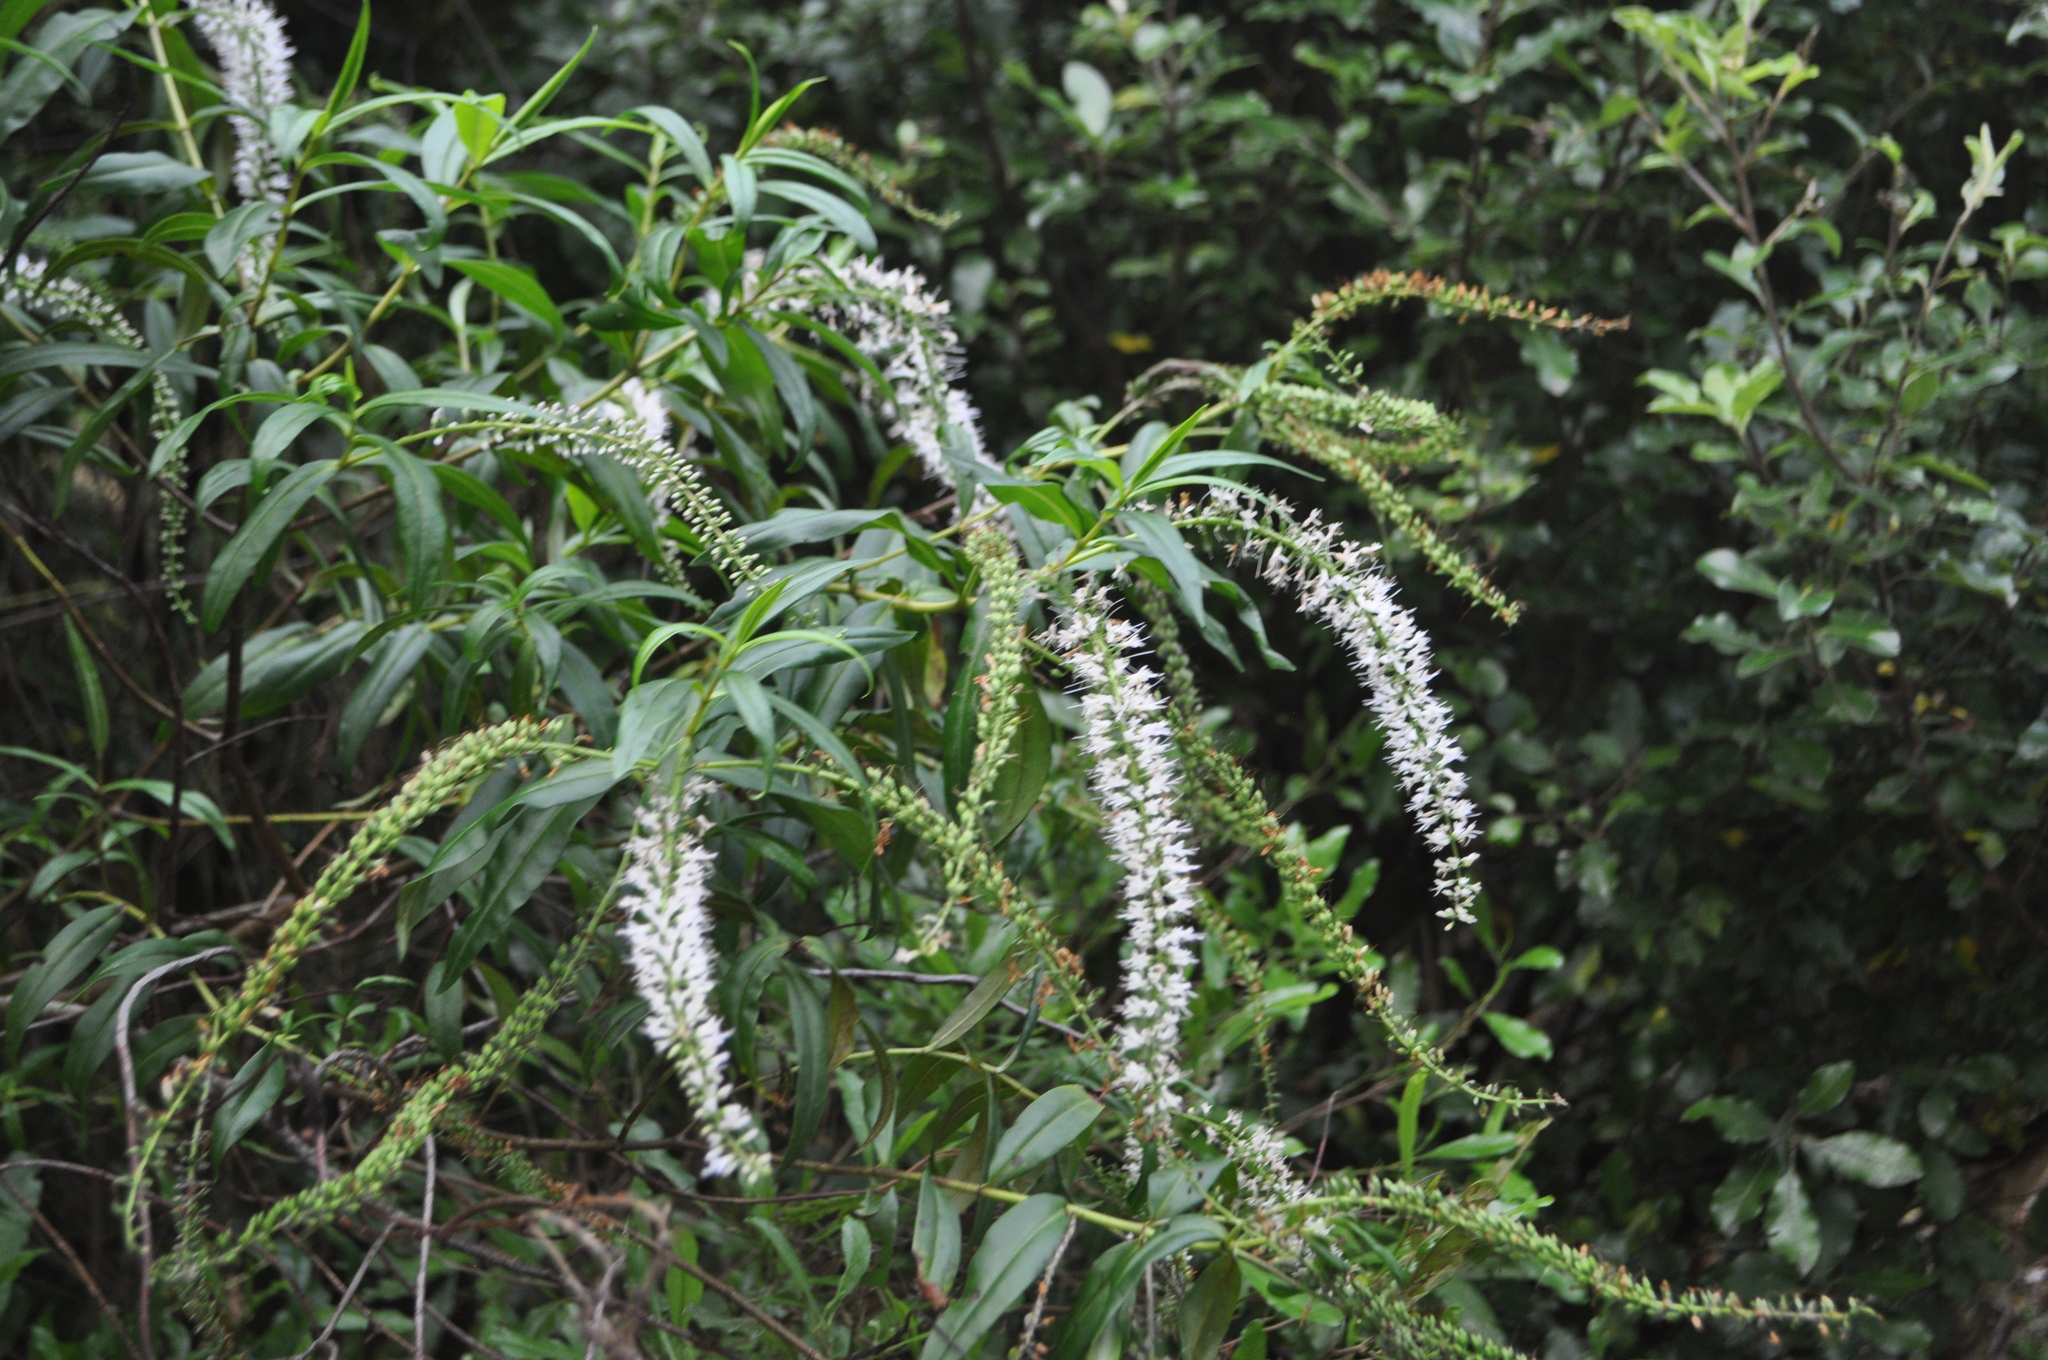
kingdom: Plantae
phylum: Tracheophyta
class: Magnoliopsida
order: Lamiales
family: Plantaginaceae
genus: Veronica
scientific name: Veronica stricta
